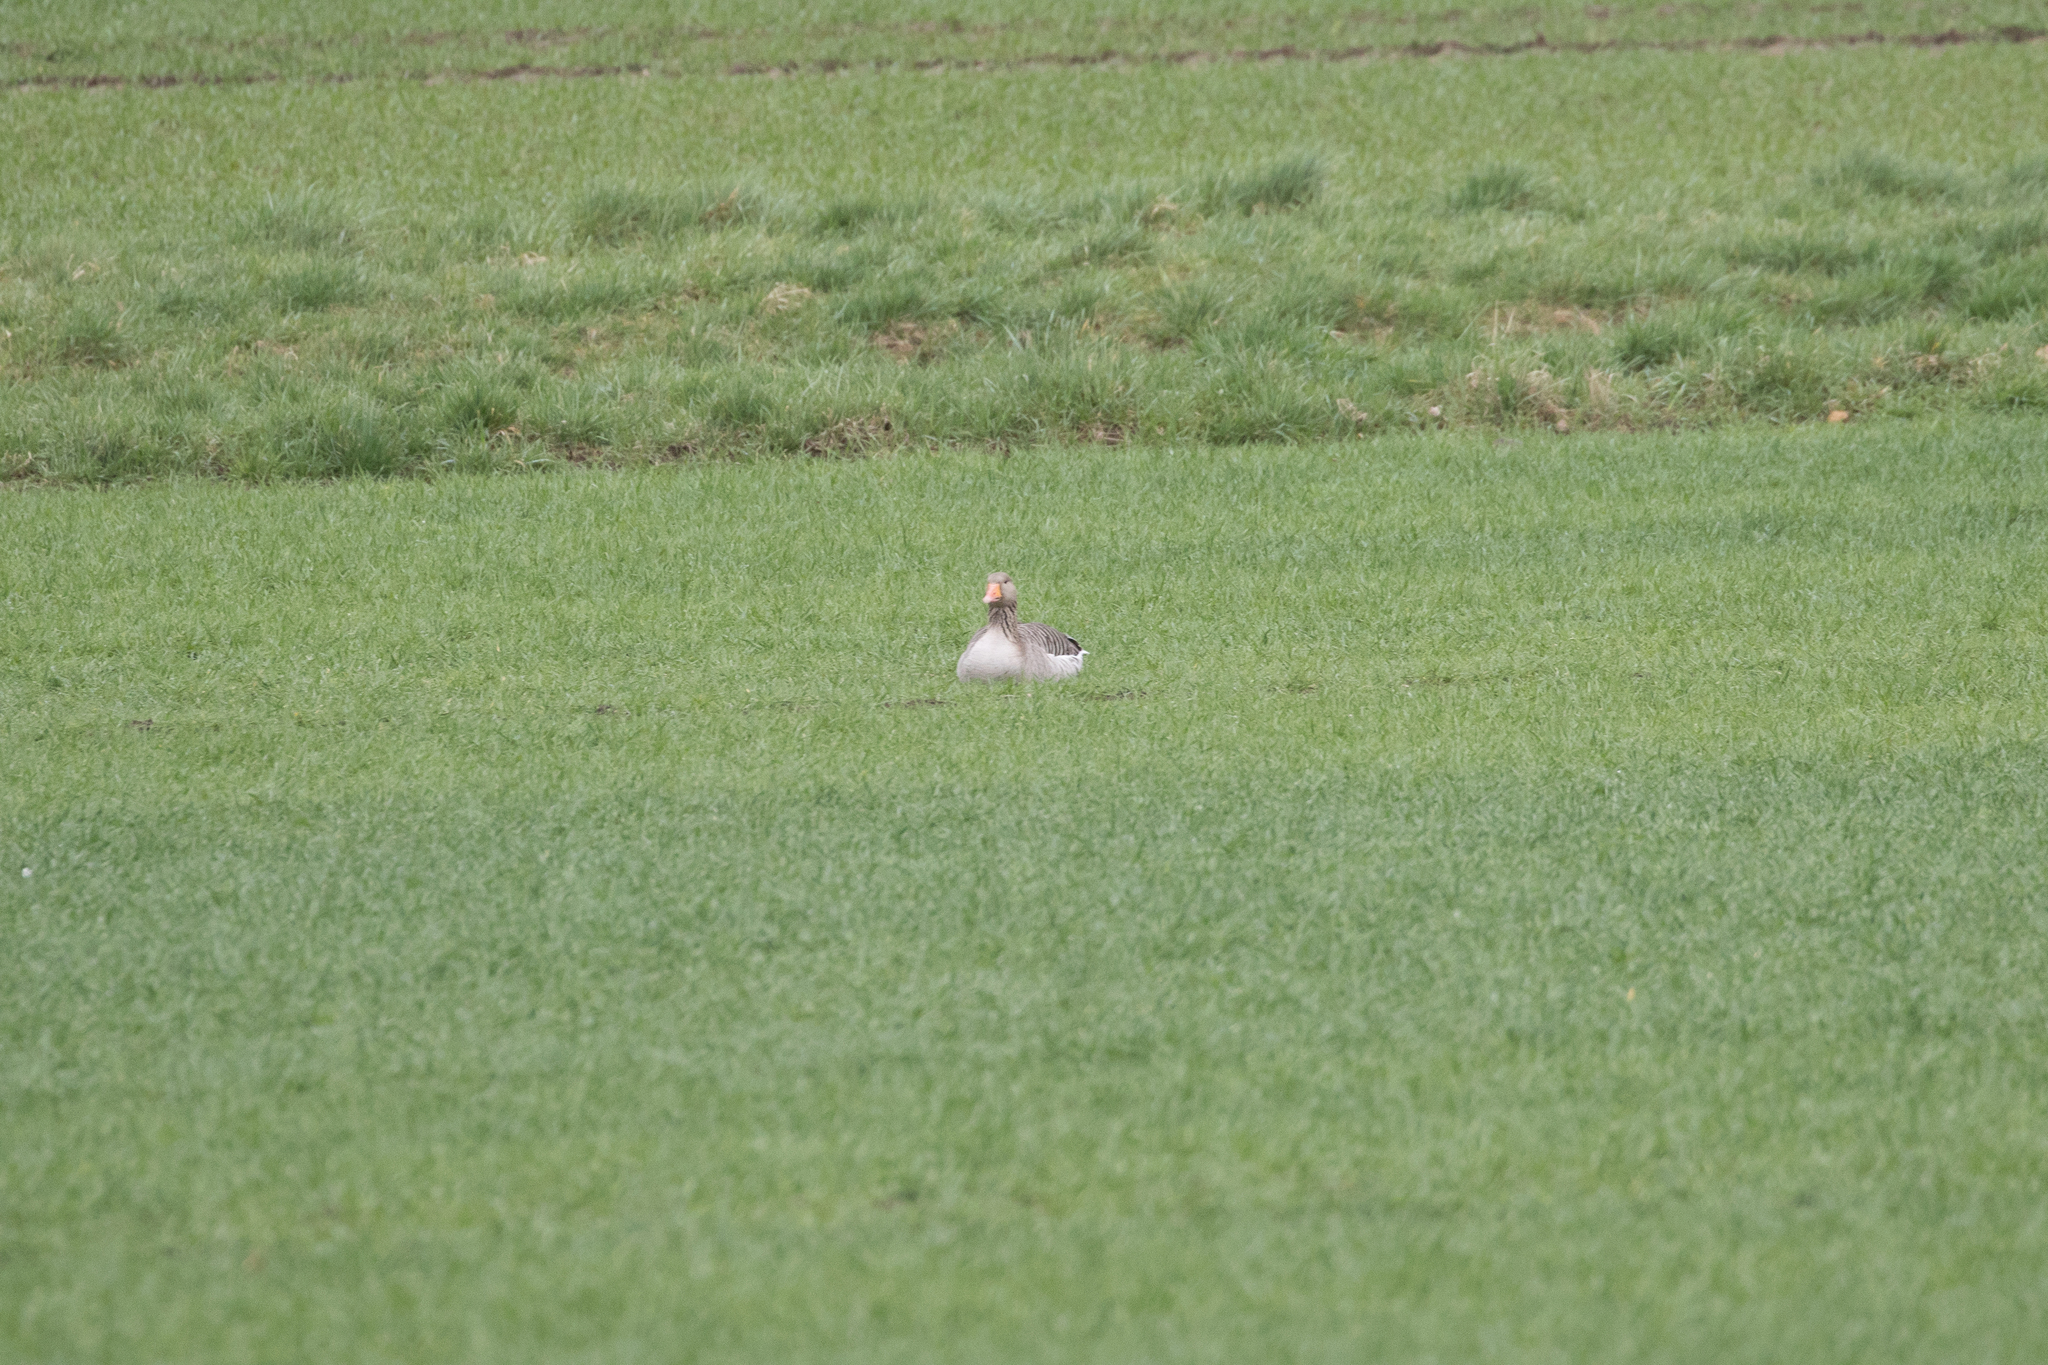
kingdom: Animalia
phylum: Chordata
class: Aves
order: Anseriformes
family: Anatidae
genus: Anser
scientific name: Anser anser
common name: Greylag goose
